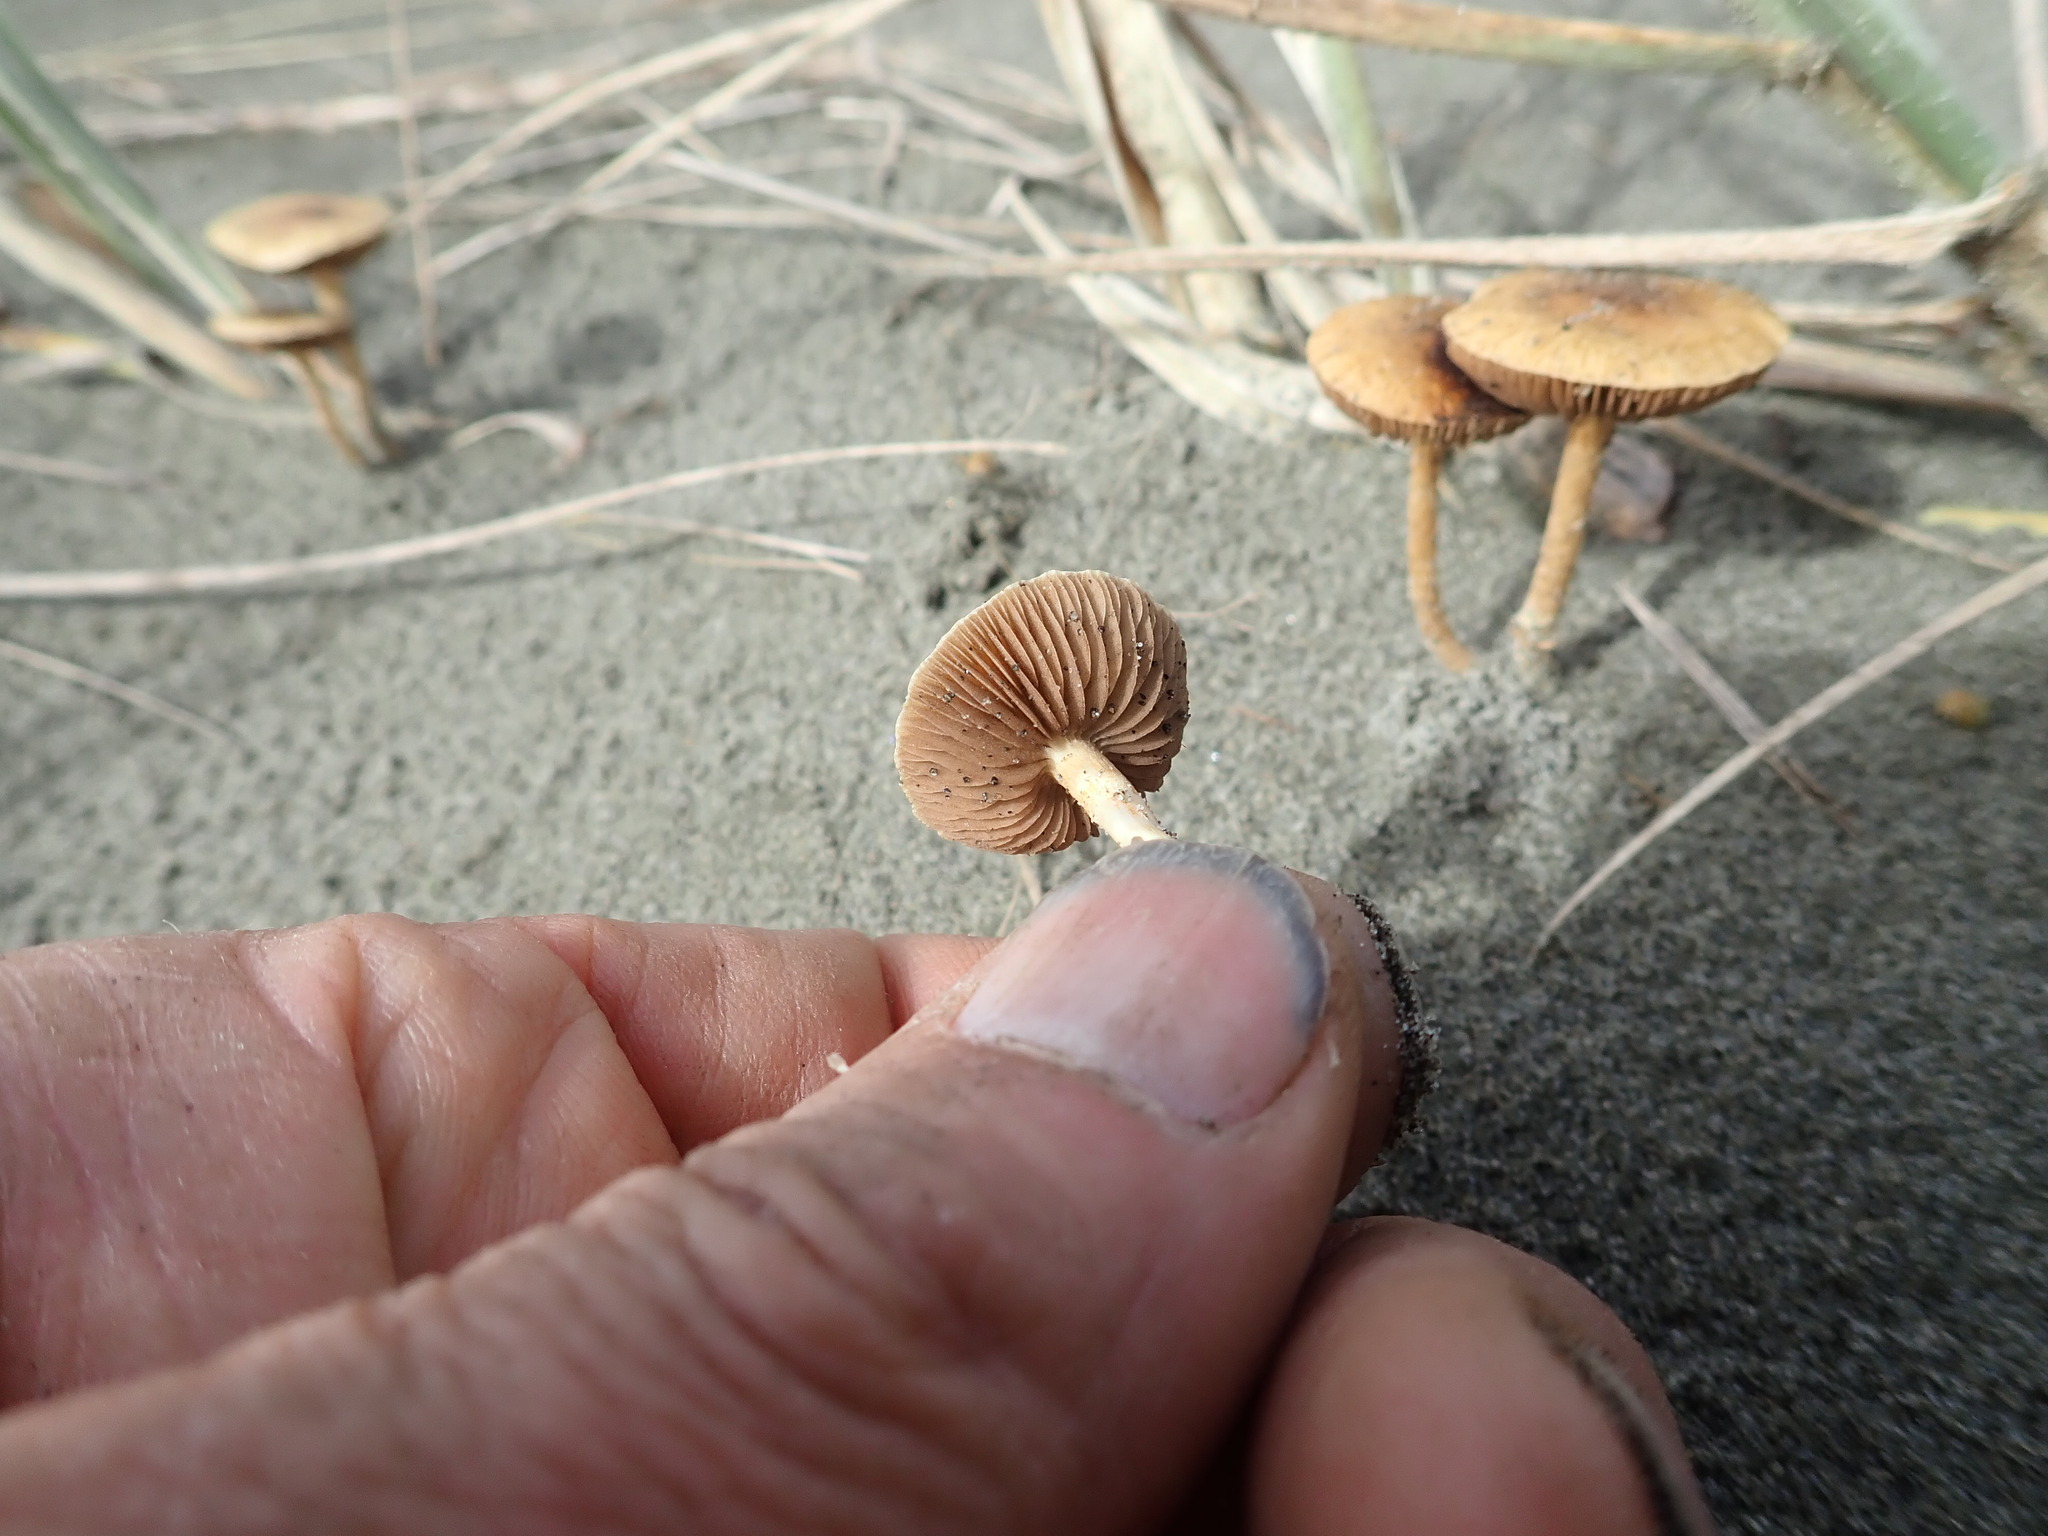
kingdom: Fungi
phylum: Basidiomycota
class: Agaricomycetes
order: Agaricales
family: Strophariaceae
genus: Agrocybe
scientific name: Agrocybe pediades
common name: Common fieldcap
